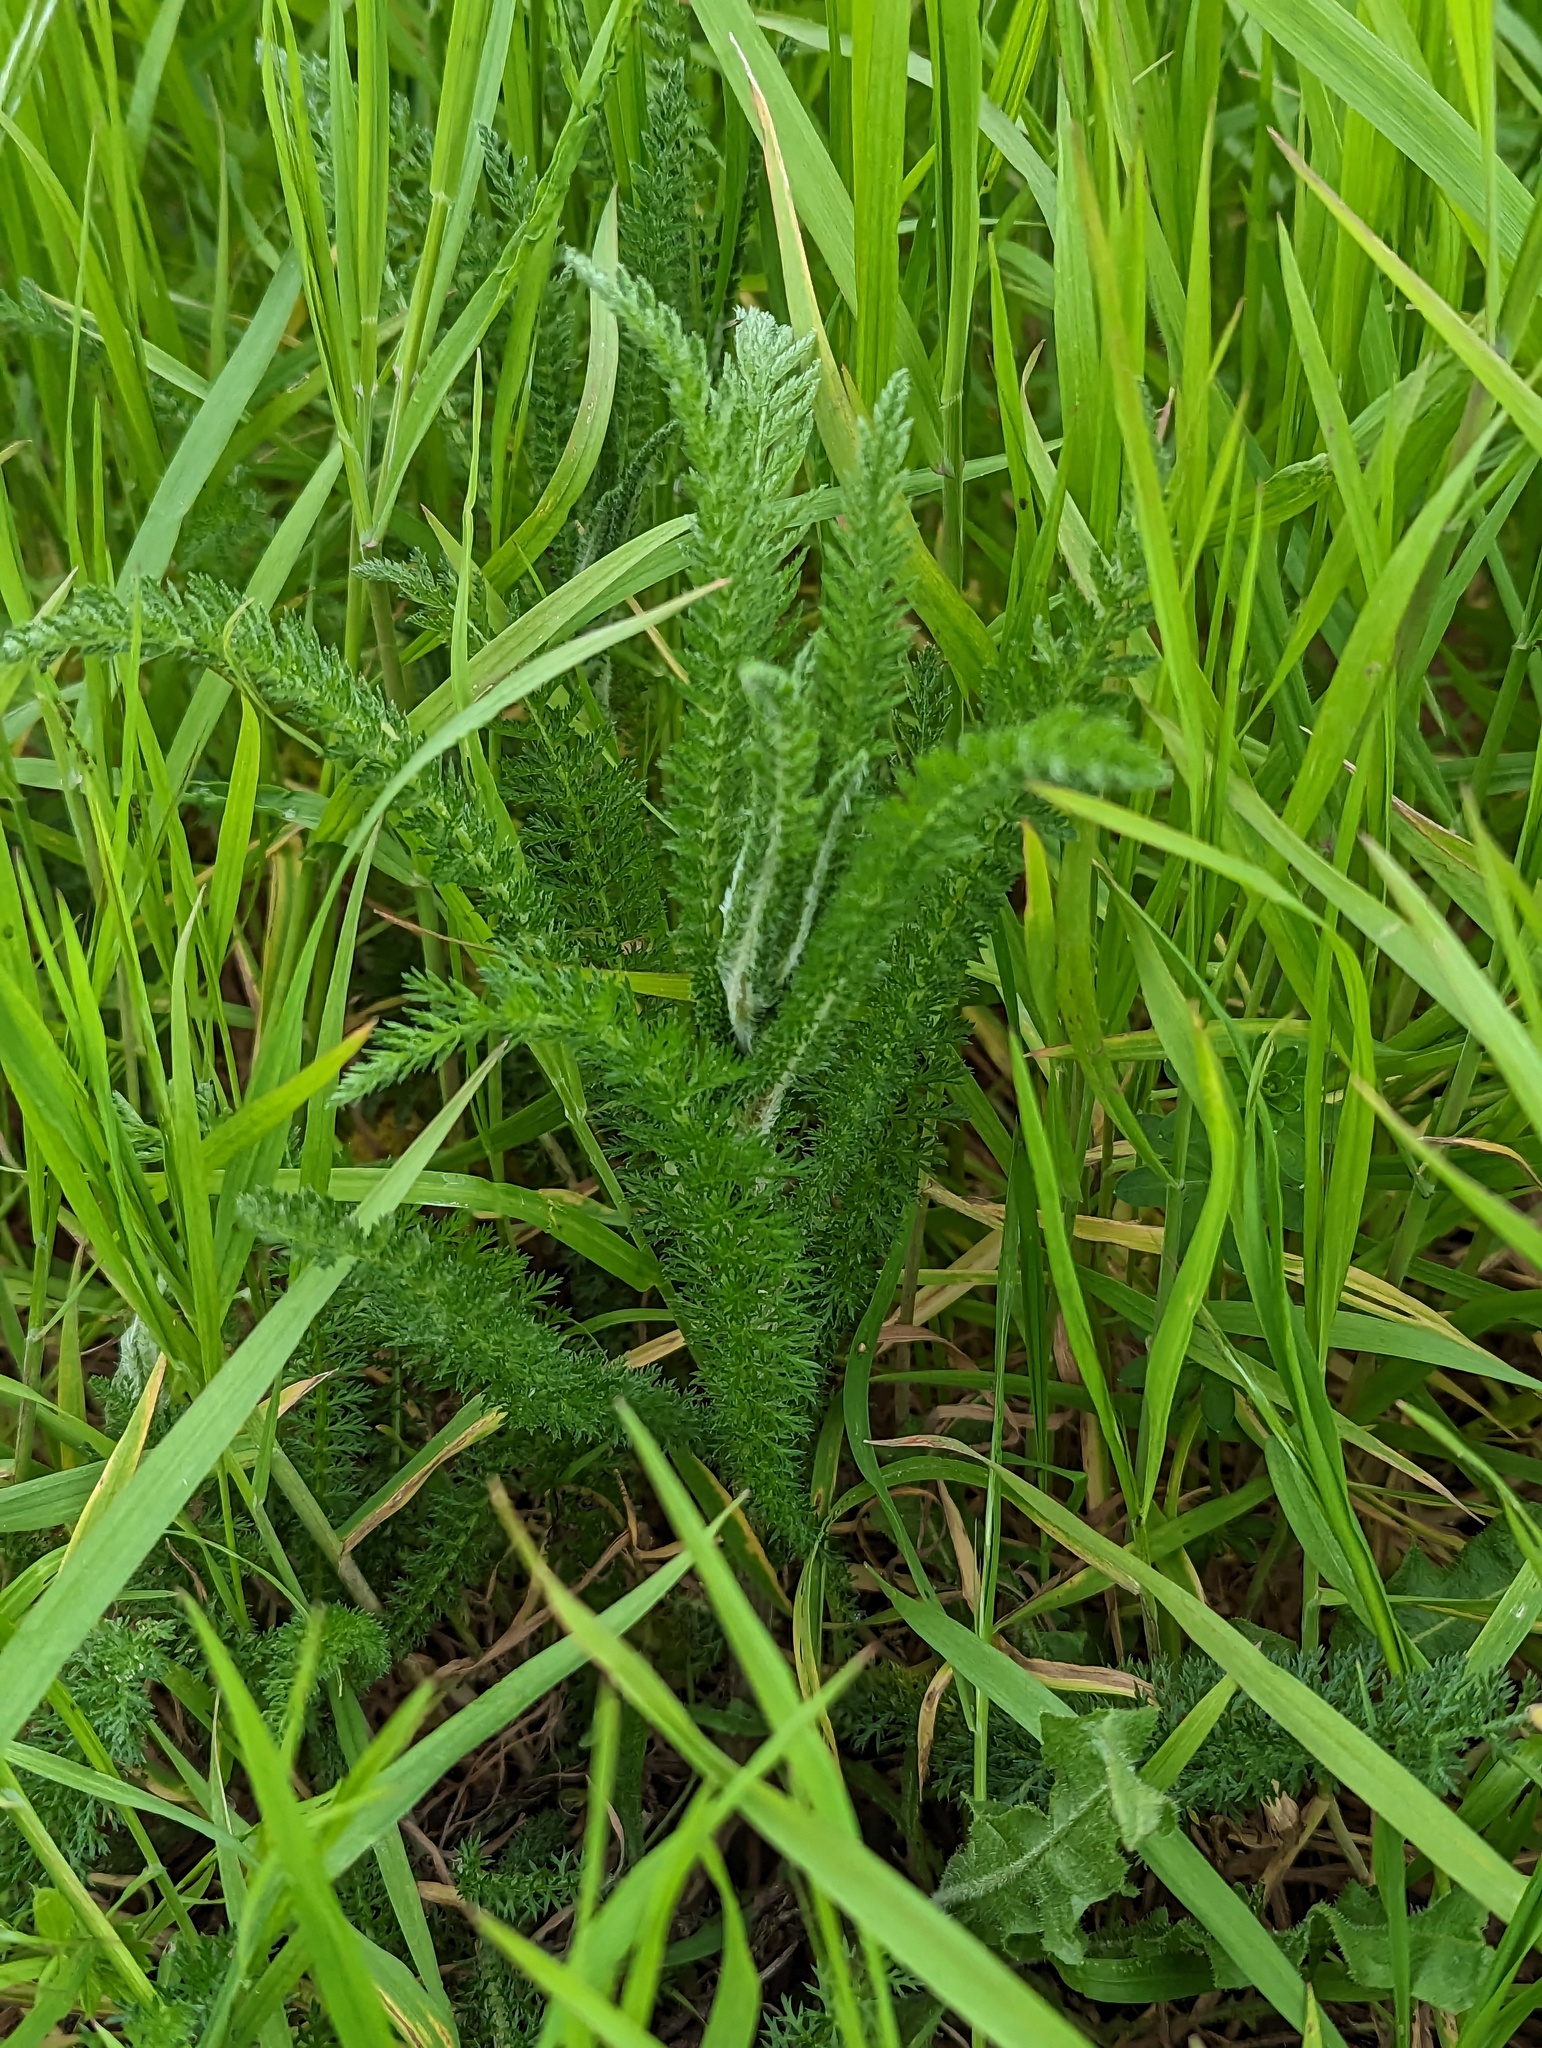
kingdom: Plantae
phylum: Tracheophyta
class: Magnoliopsida
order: Asterales
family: Asteraceae
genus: Achillea
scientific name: Achillea millefolium
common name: Yarrow
